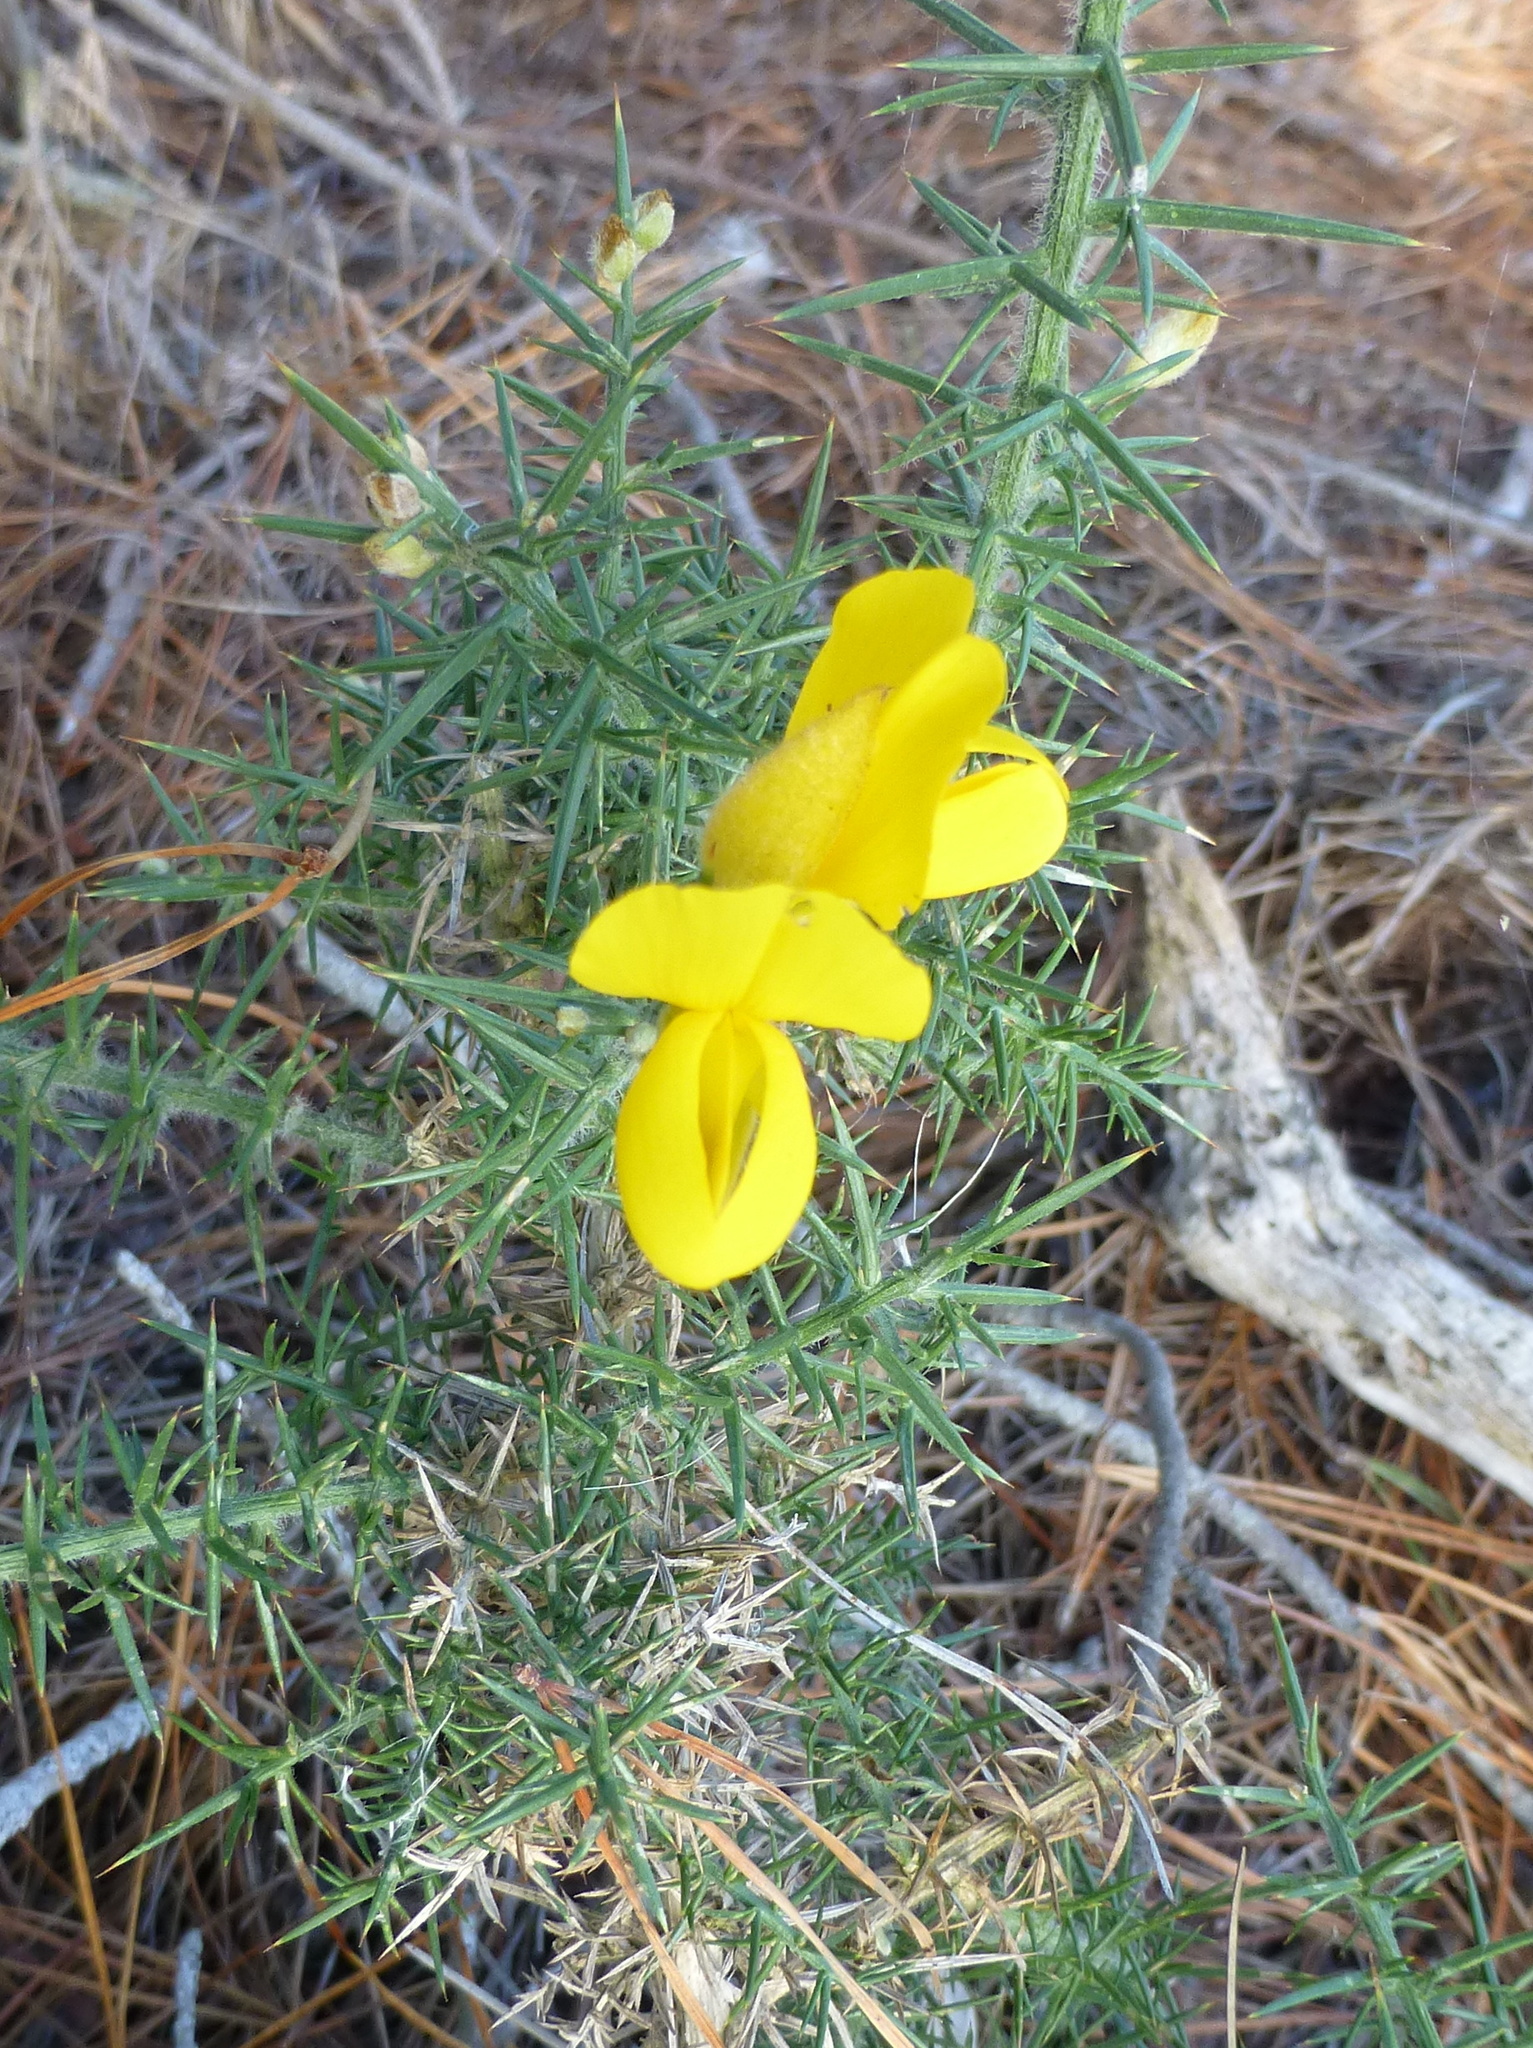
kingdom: Plantae
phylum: Tracheophyta
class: Magnoliopsida
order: Fabales
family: Fabaceae
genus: Ulex
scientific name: Ulex europaeus
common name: Common gorse
